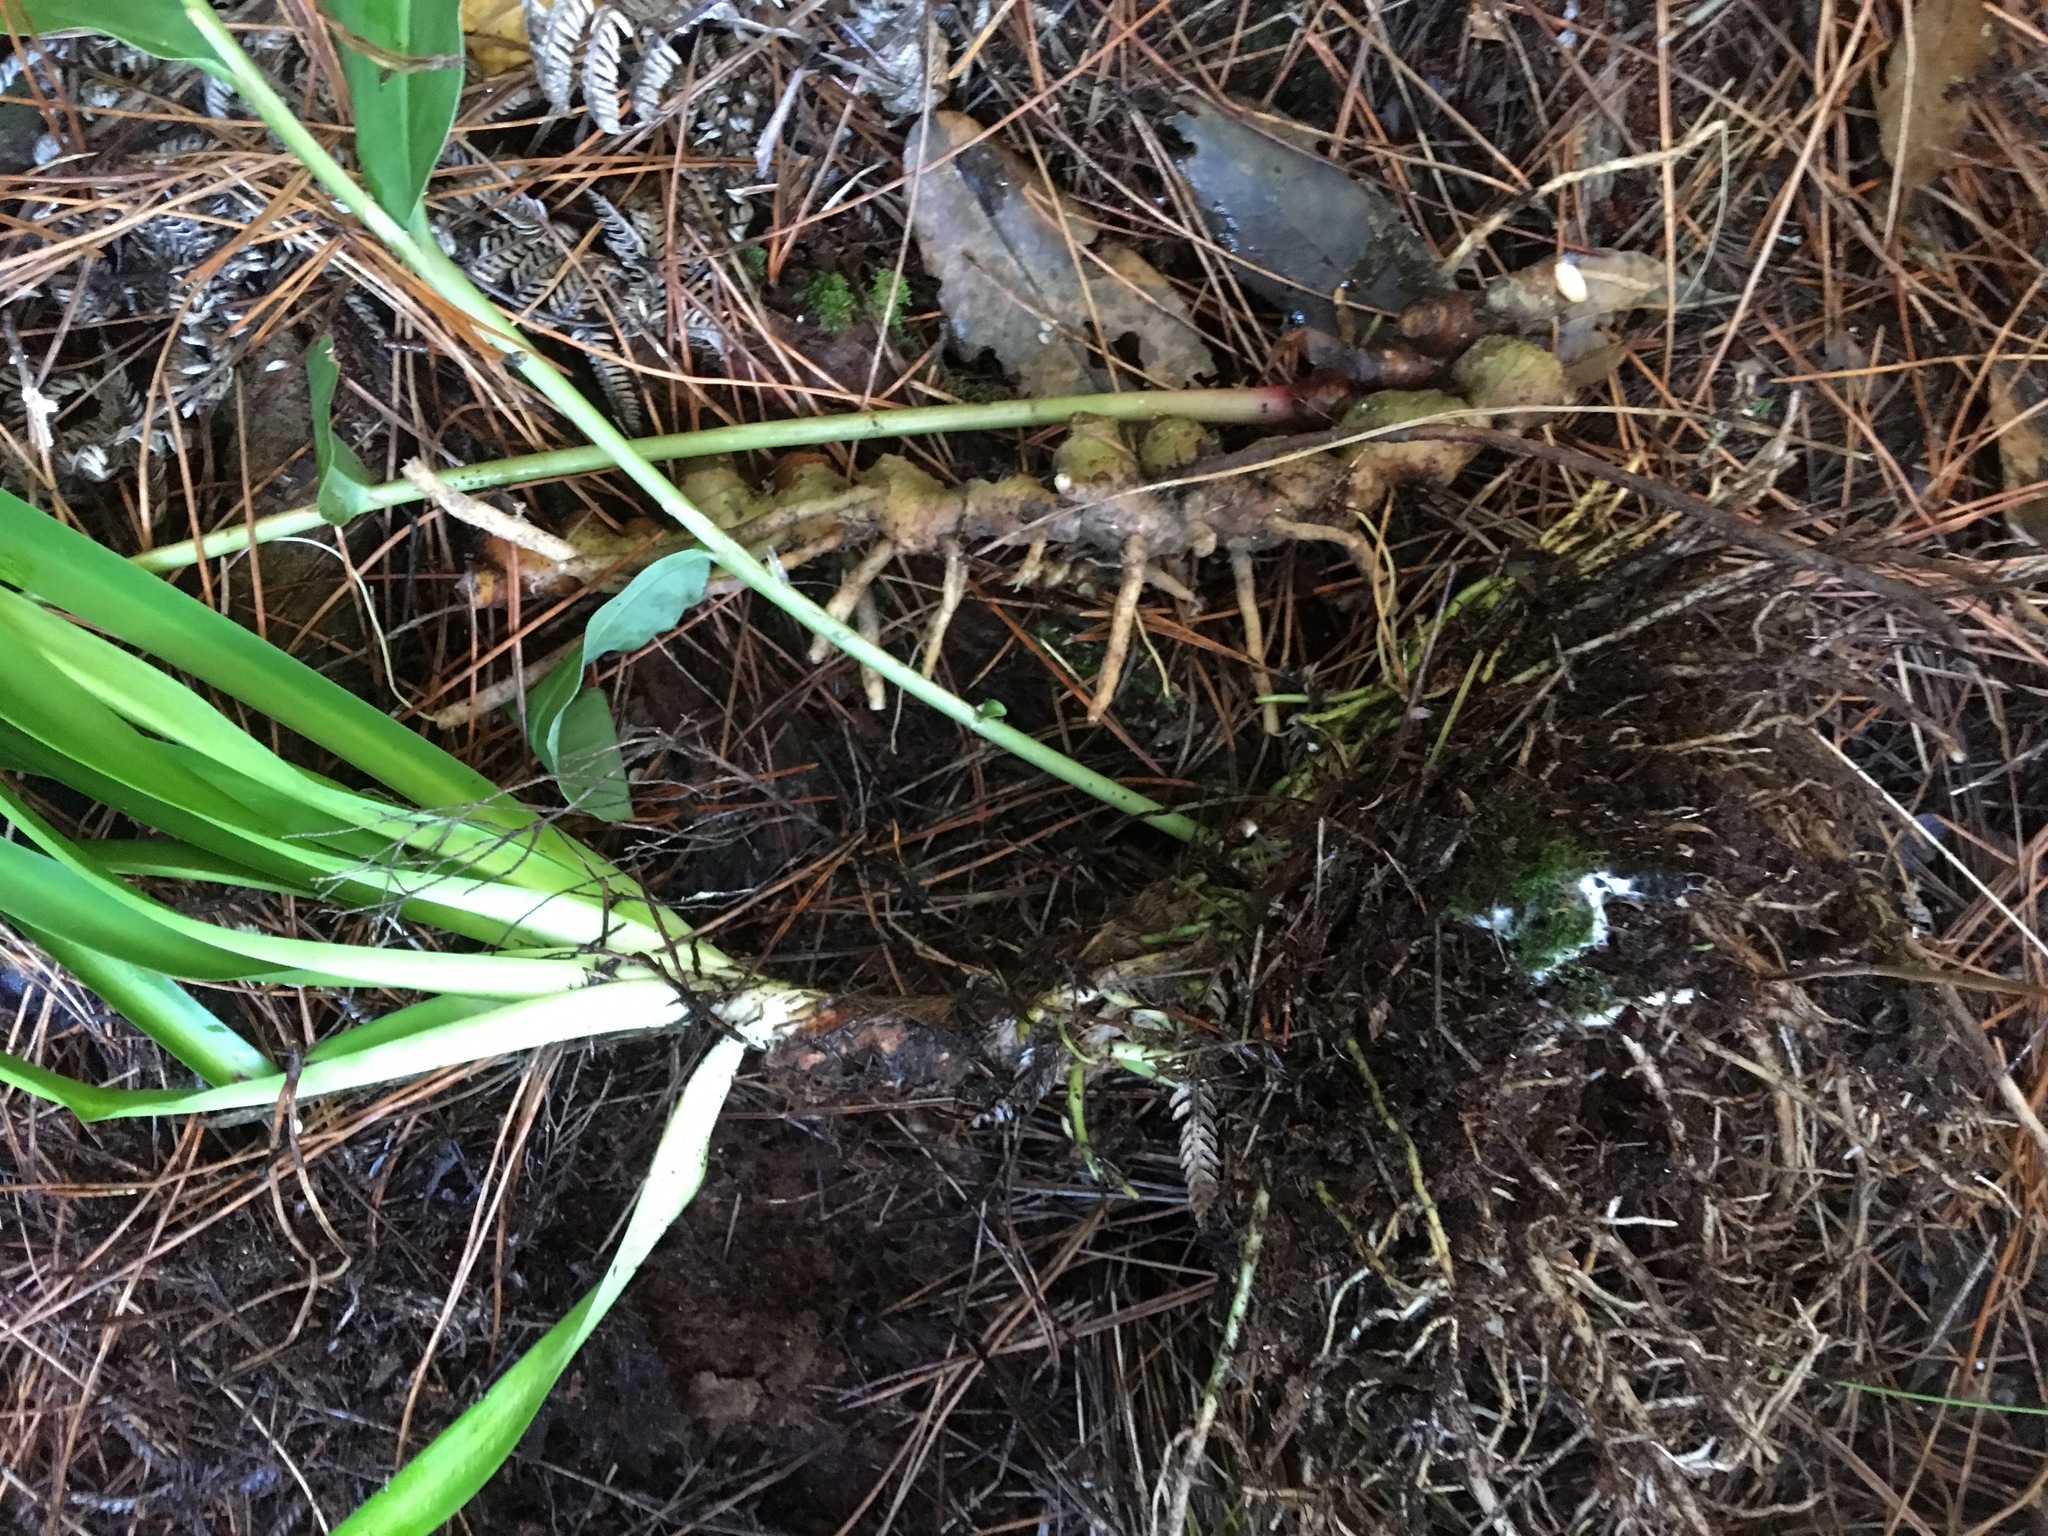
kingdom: Plantae
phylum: Tracheophyta
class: Liliopsida
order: Zingiberales
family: Zingiberaceae
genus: Hedychium
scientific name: Hedychium gardnerianum
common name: Himalayan ginger
